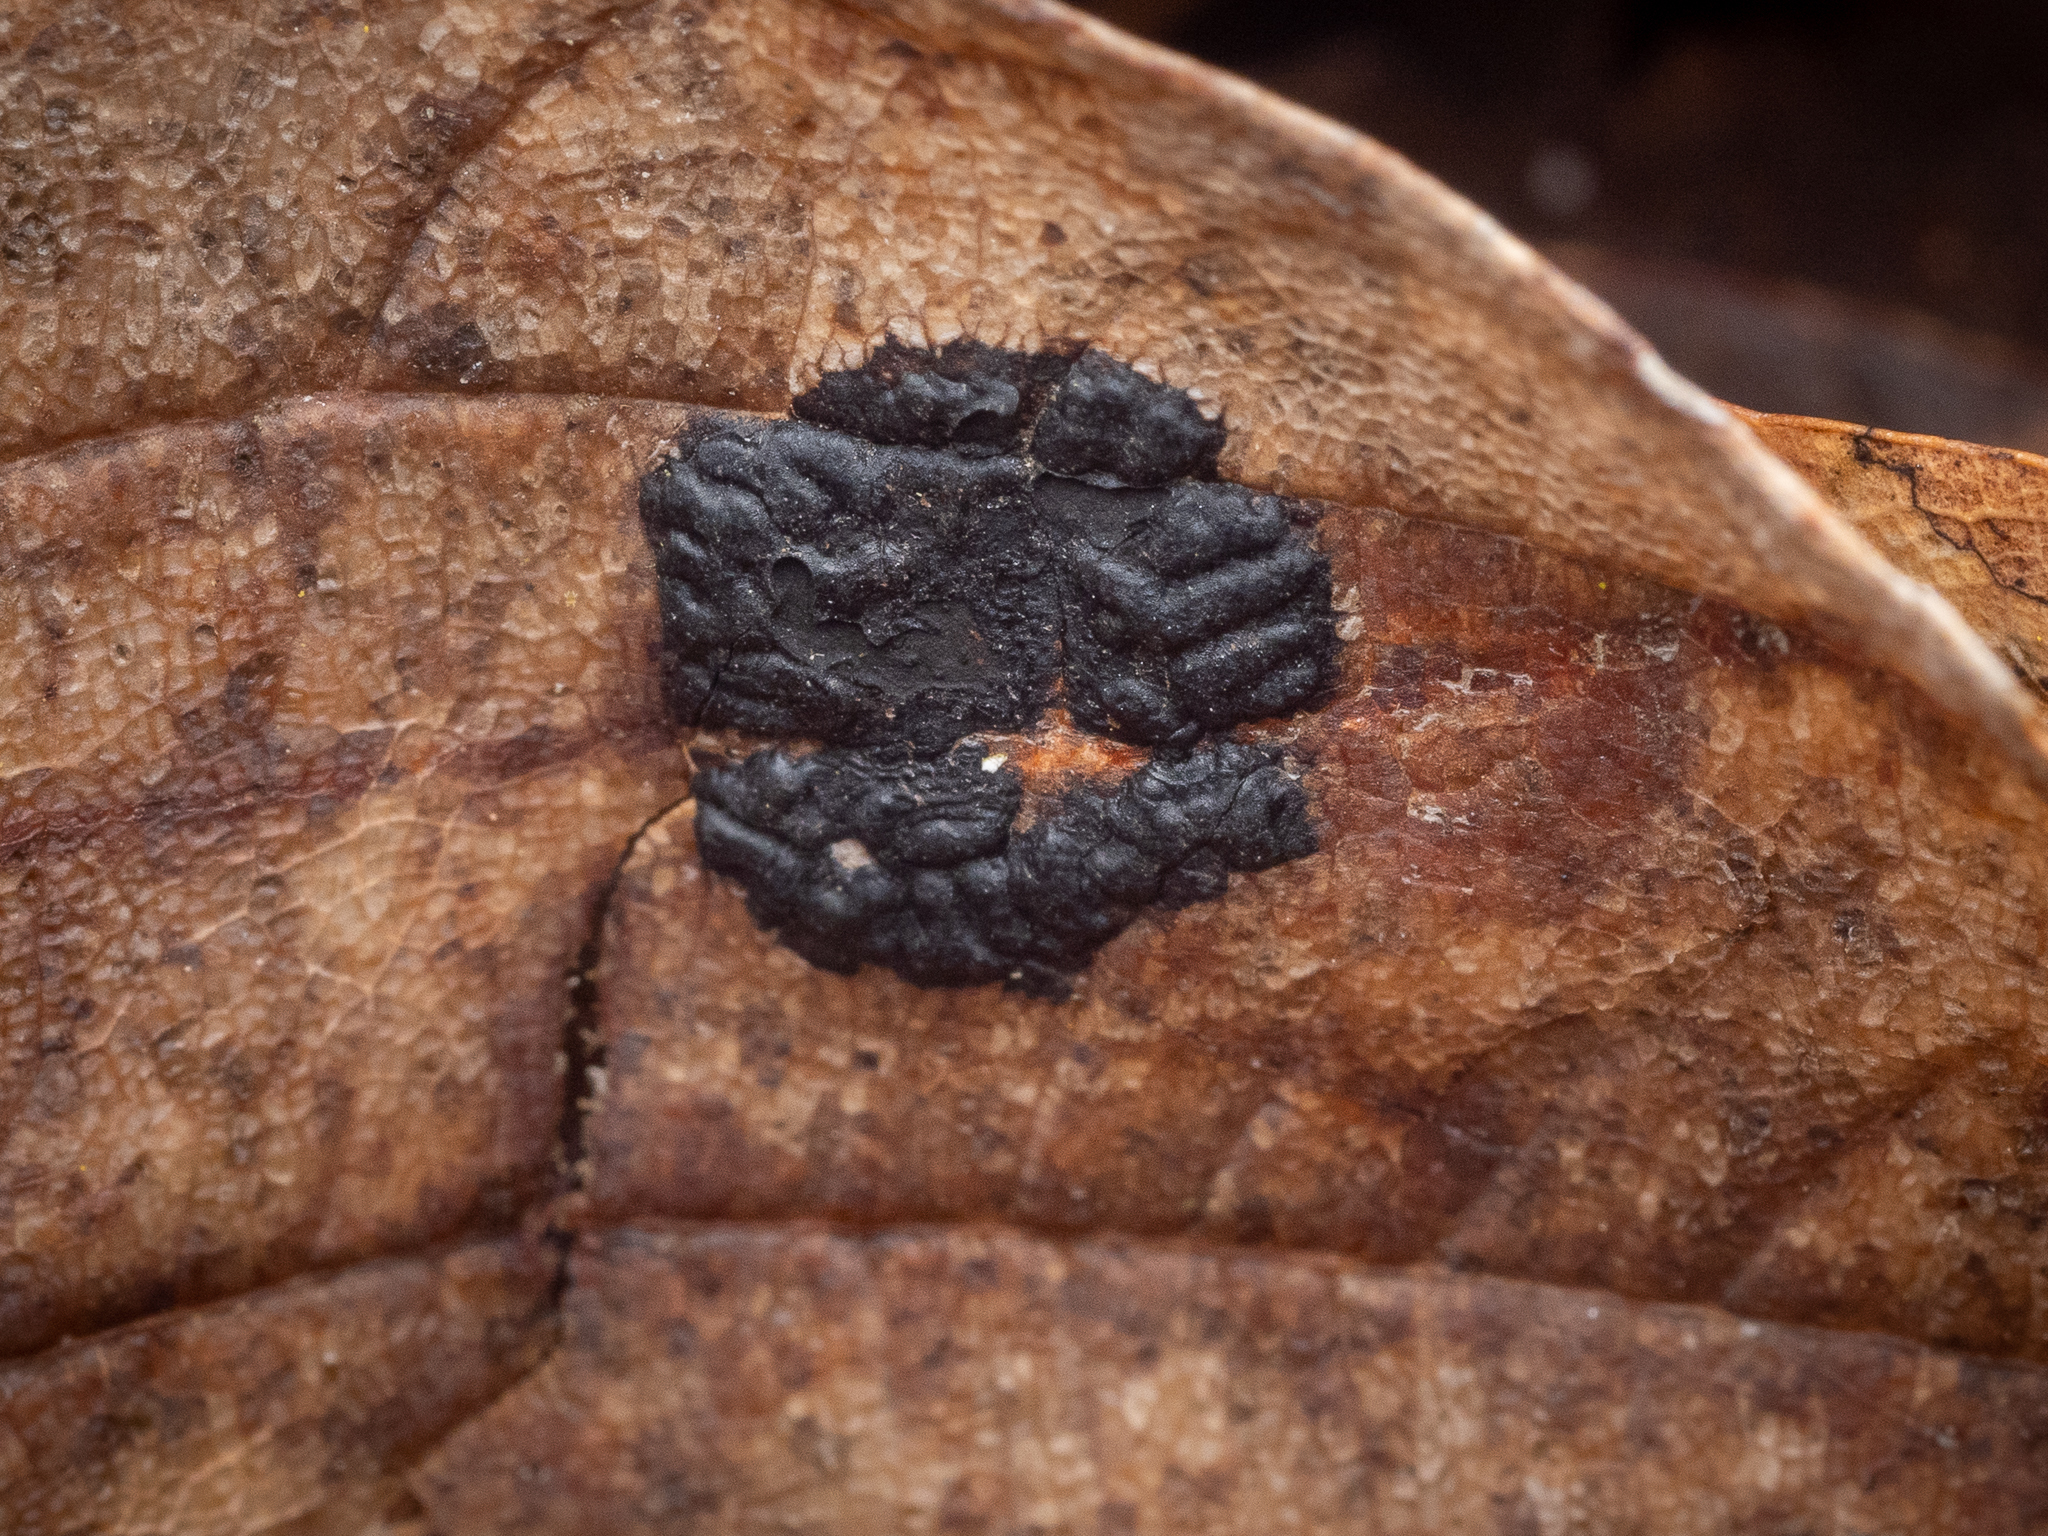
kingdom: Fungi
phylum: Ascomycota
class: Leotiomycetes
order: Rhytismatales
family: Rhytismataceae
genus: Rhytisma
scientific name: Rhytisma acerinum
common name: European tar spot
